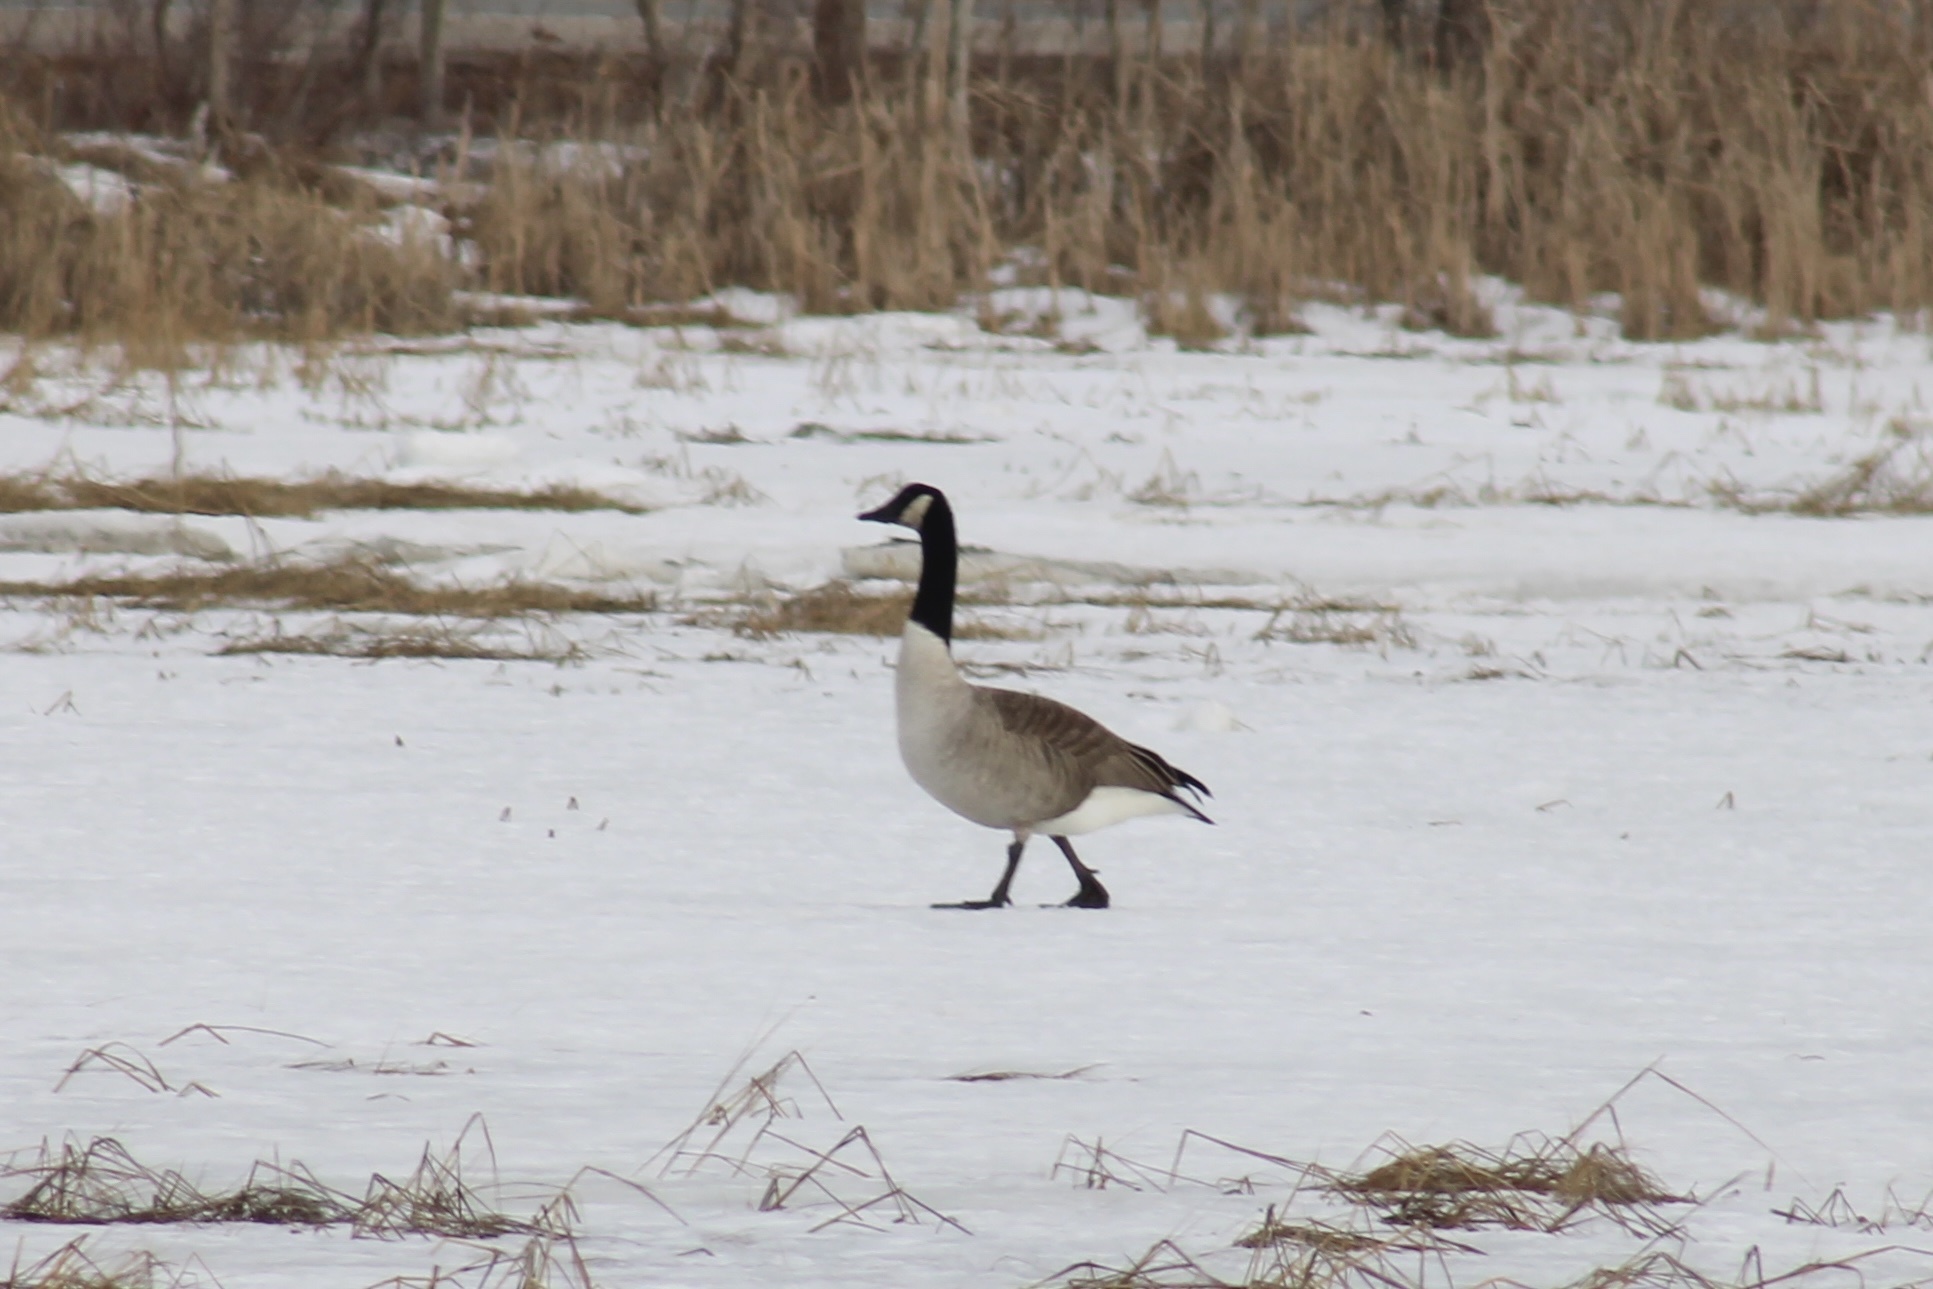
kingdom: Animalia
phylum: Chordata
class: Aves
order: Anseriformes
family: Anatidae
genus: Branta
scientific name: Branta canadensis
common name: Canada goose
